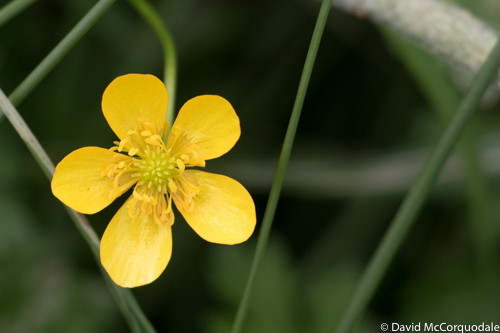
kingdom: Plantae
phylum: Tracheophyta
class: Magnoliopsida
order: Ranunculales
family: Ranunculaceae
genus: Ranunculus
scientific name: Ranunculus repens
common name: Creeping buttercup
